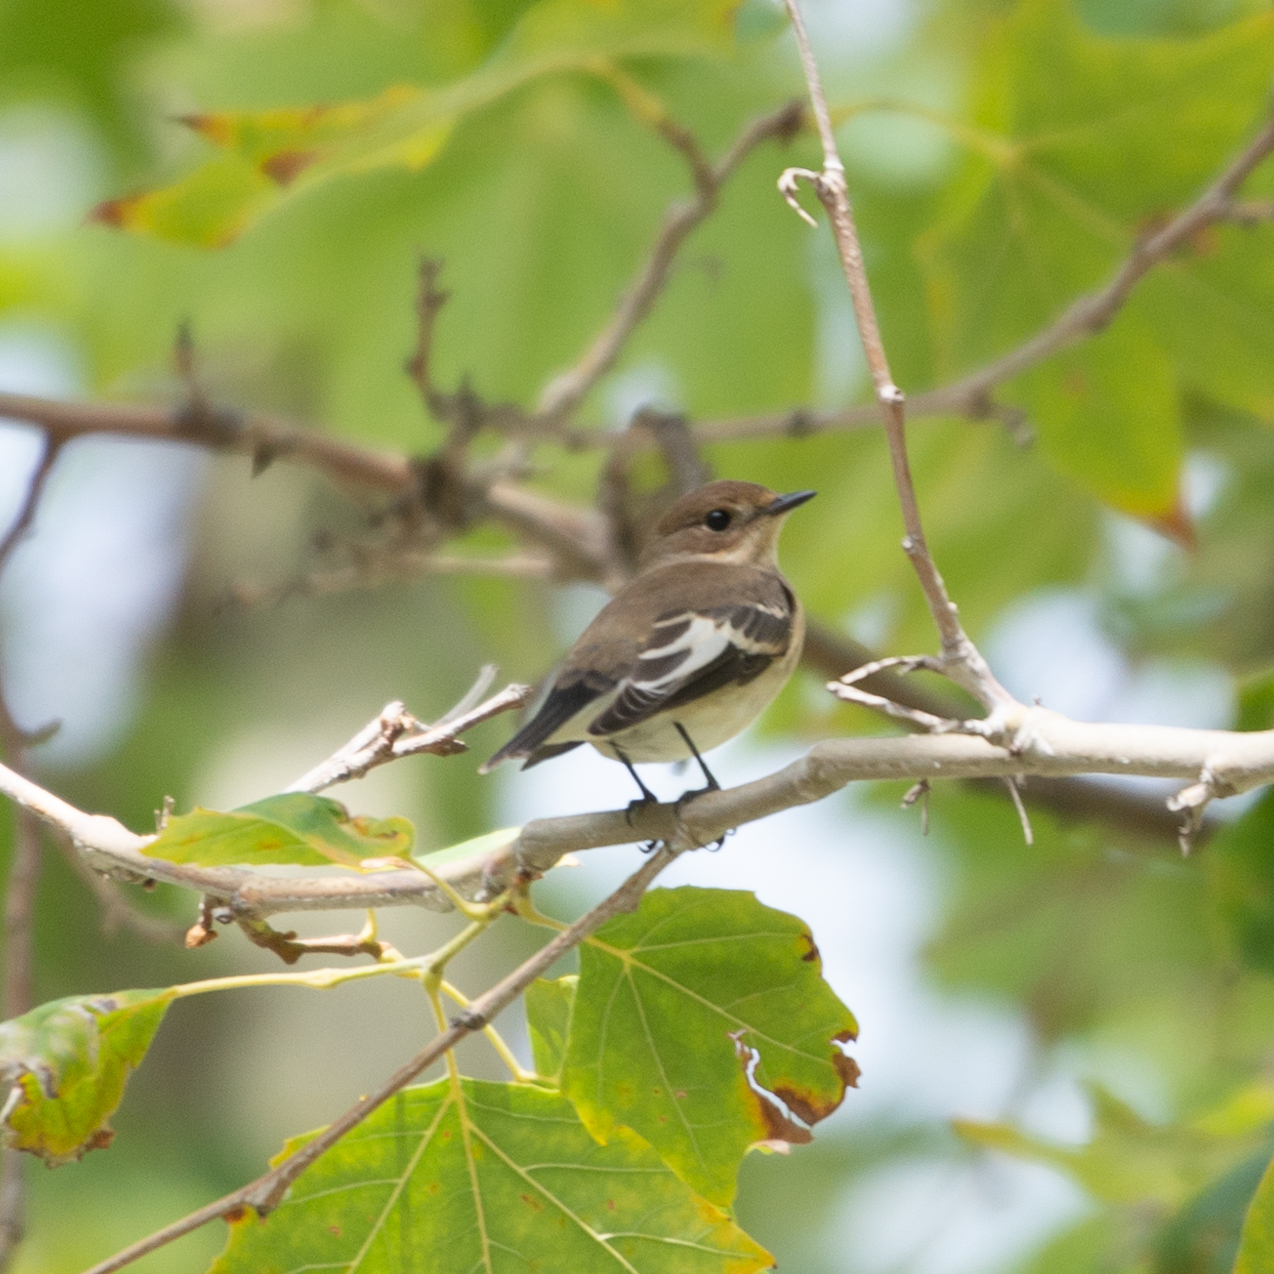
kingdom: Animalia
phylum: Chordata
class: Aves
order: Passeriformes
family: Muscicapidae
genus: Ficedula
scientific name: Ficedula hypoleuca
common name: European pied flycatcher
